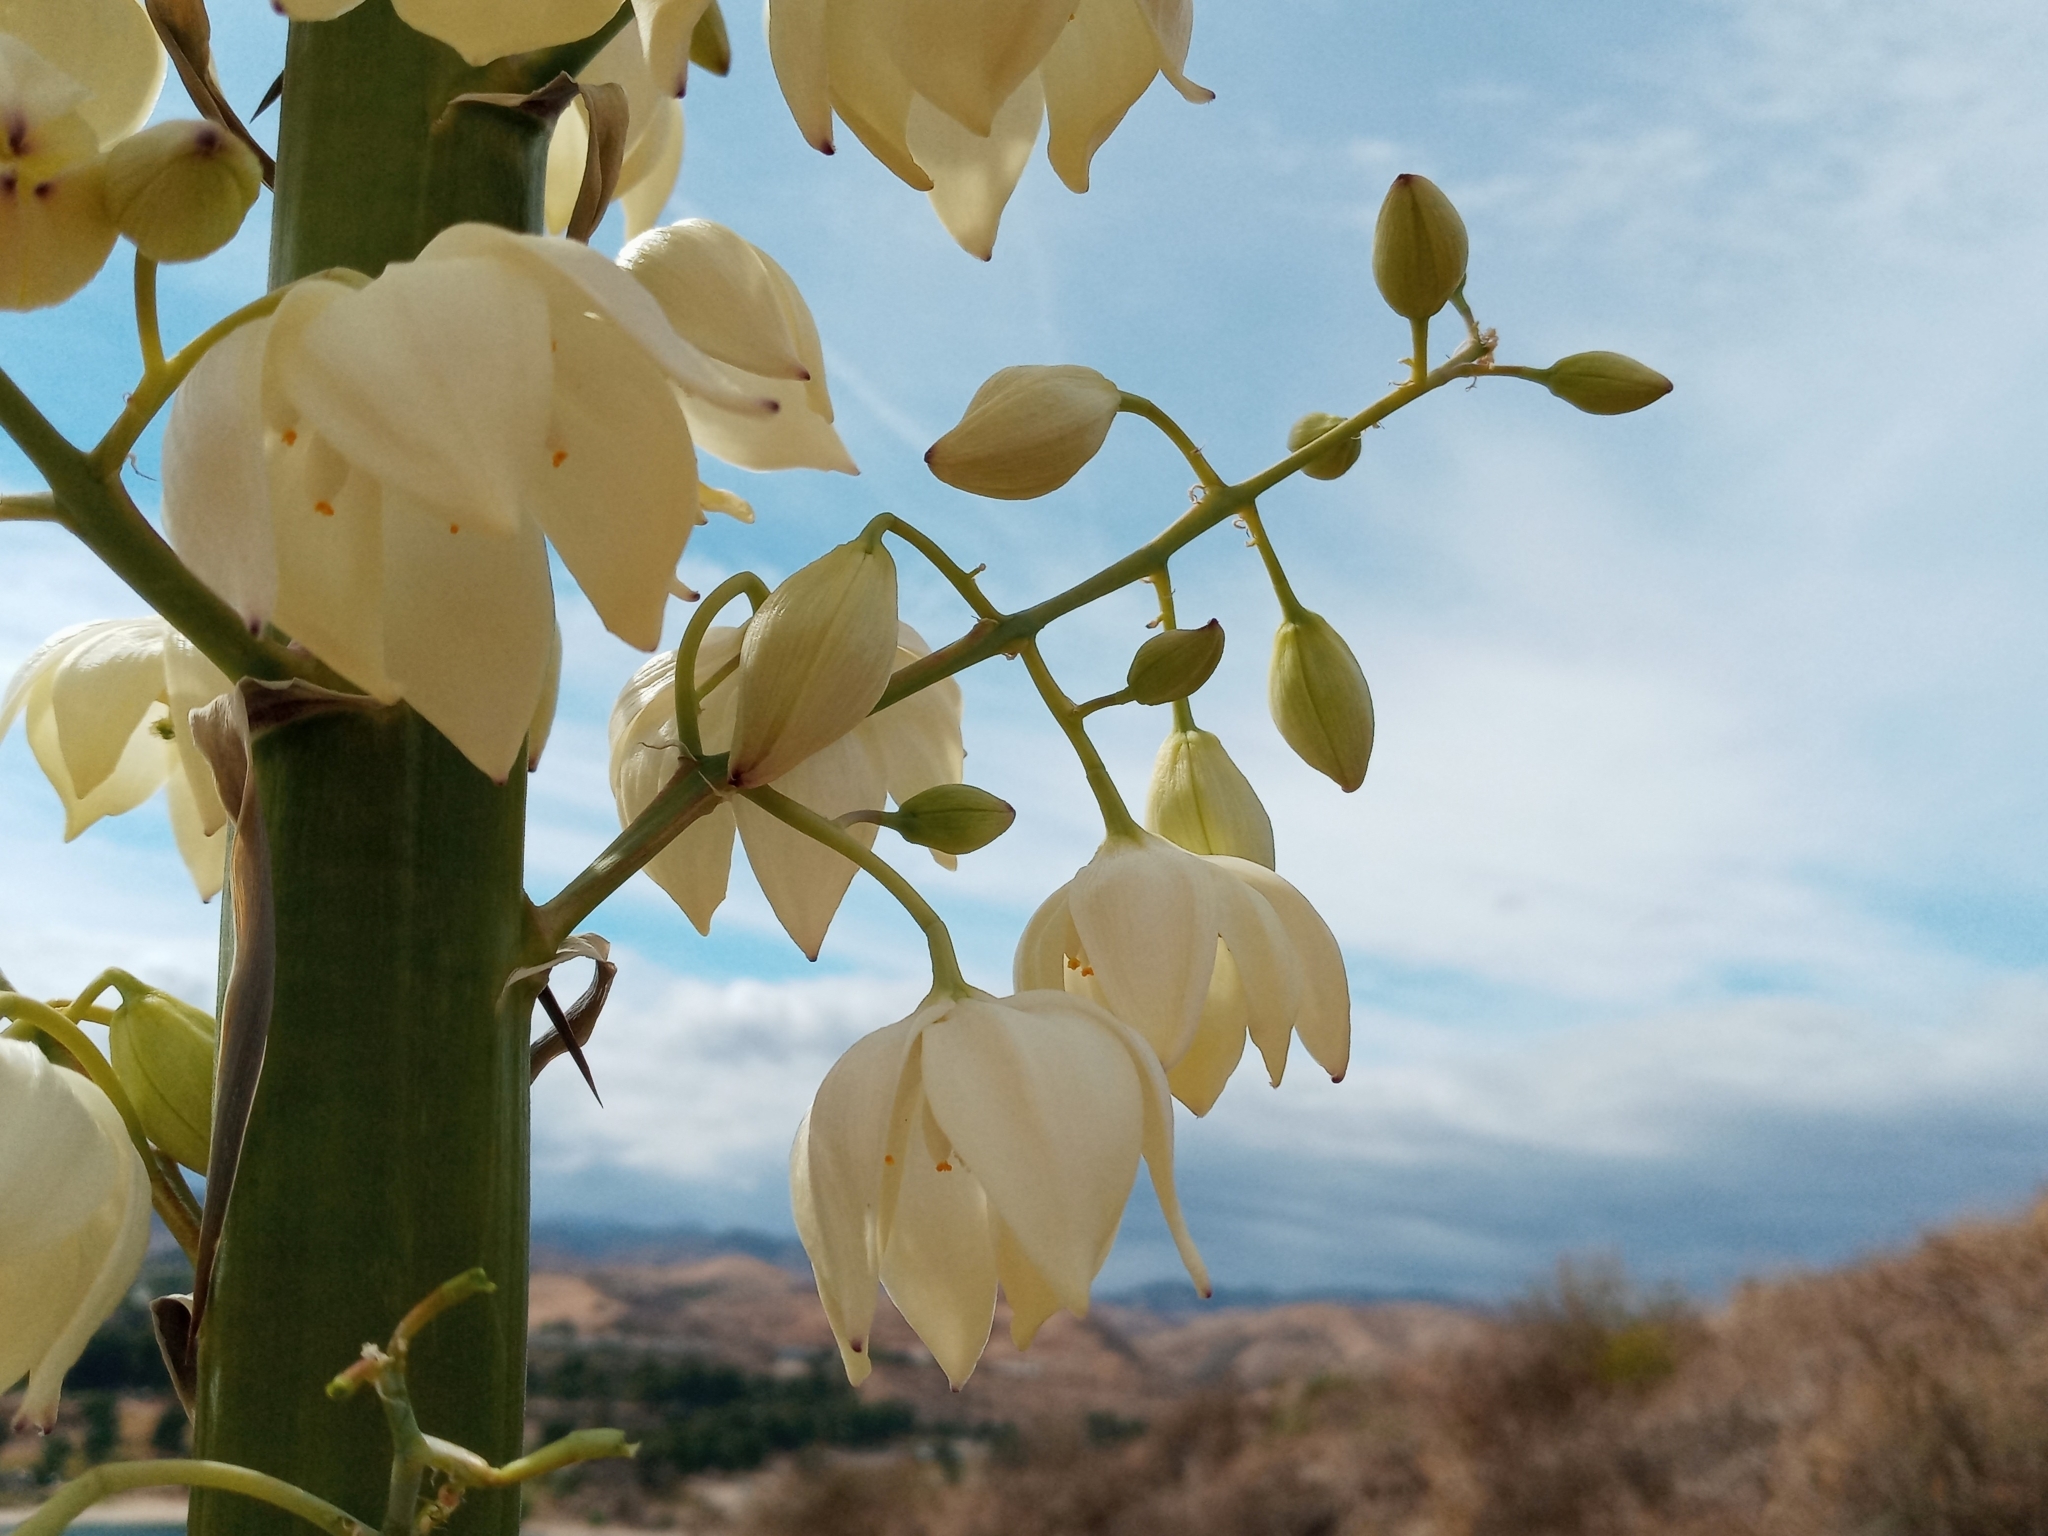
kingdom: Plantae
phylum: Tracheophyta
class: Liliopsida
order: Asparagales
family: Asparagaceae
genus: Hesperoyucca
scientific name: Hesperoyucca whipplei
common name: Our lord's-candle
